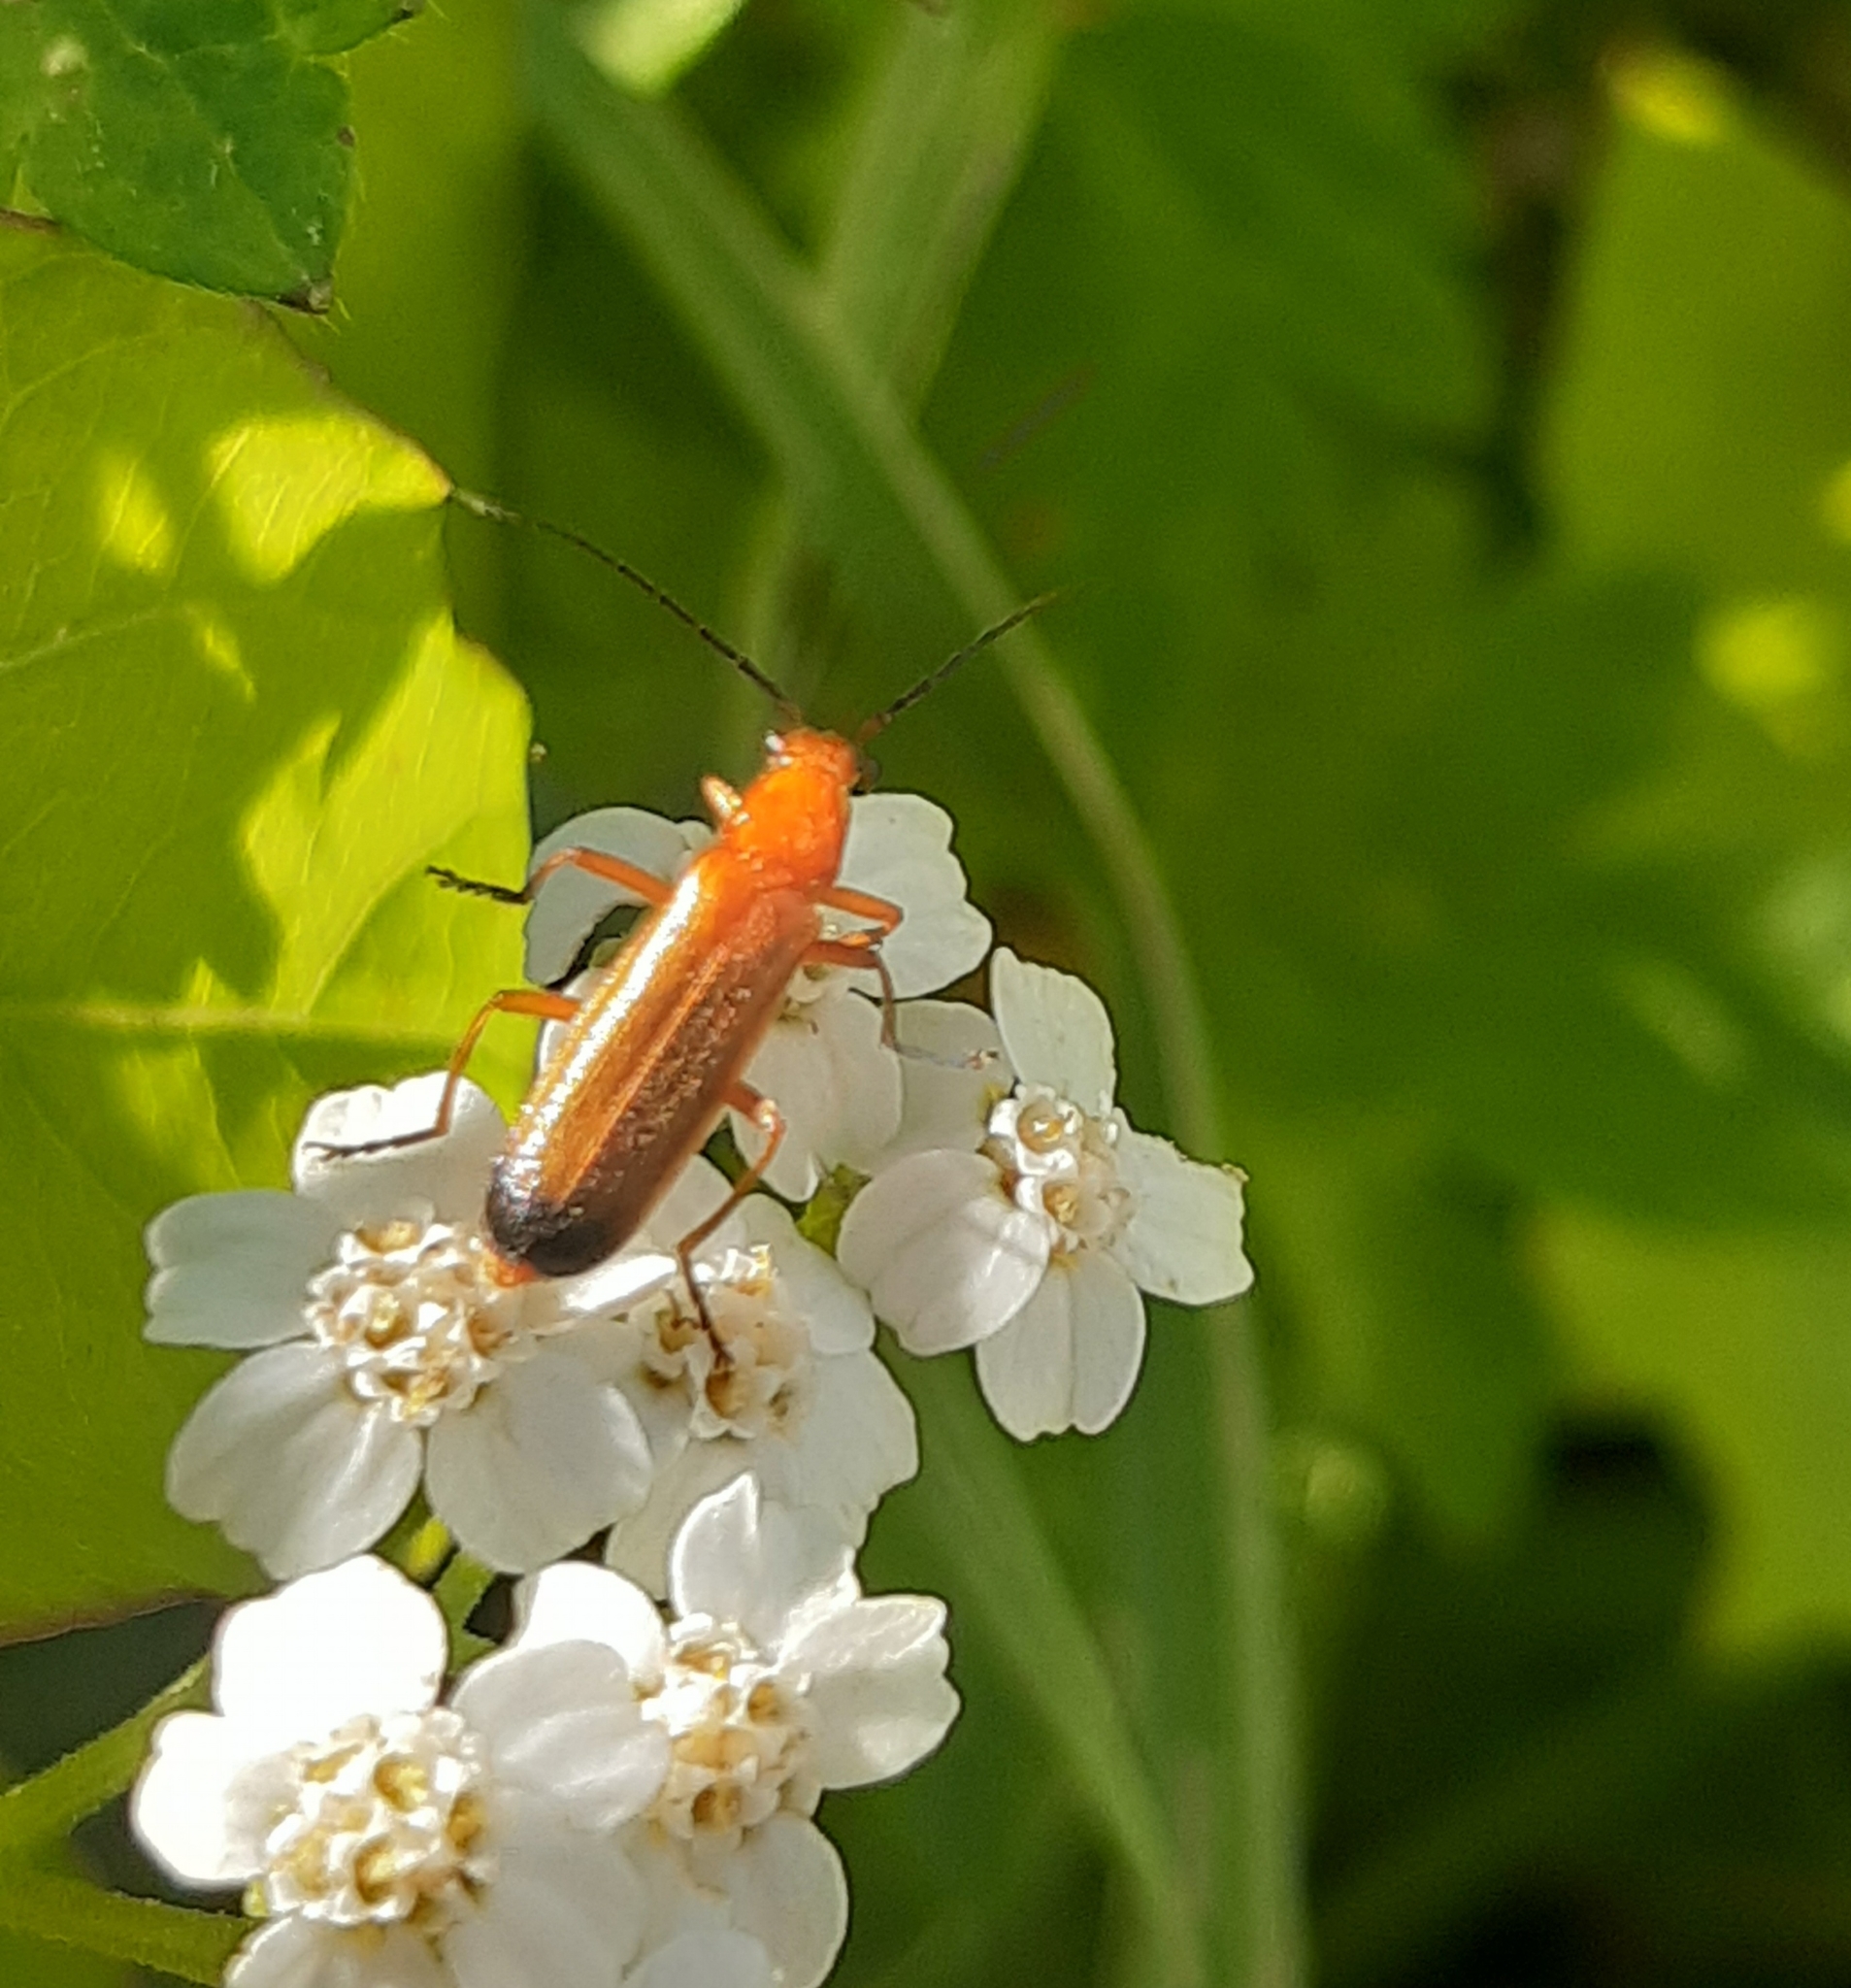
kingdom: Animalia
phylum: Arthropoda
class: Insecta
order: Coleoptera
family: Cantharidae
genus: Rhagonycha
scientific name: Rhagonycha fulva
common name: Common red soldier beetle
